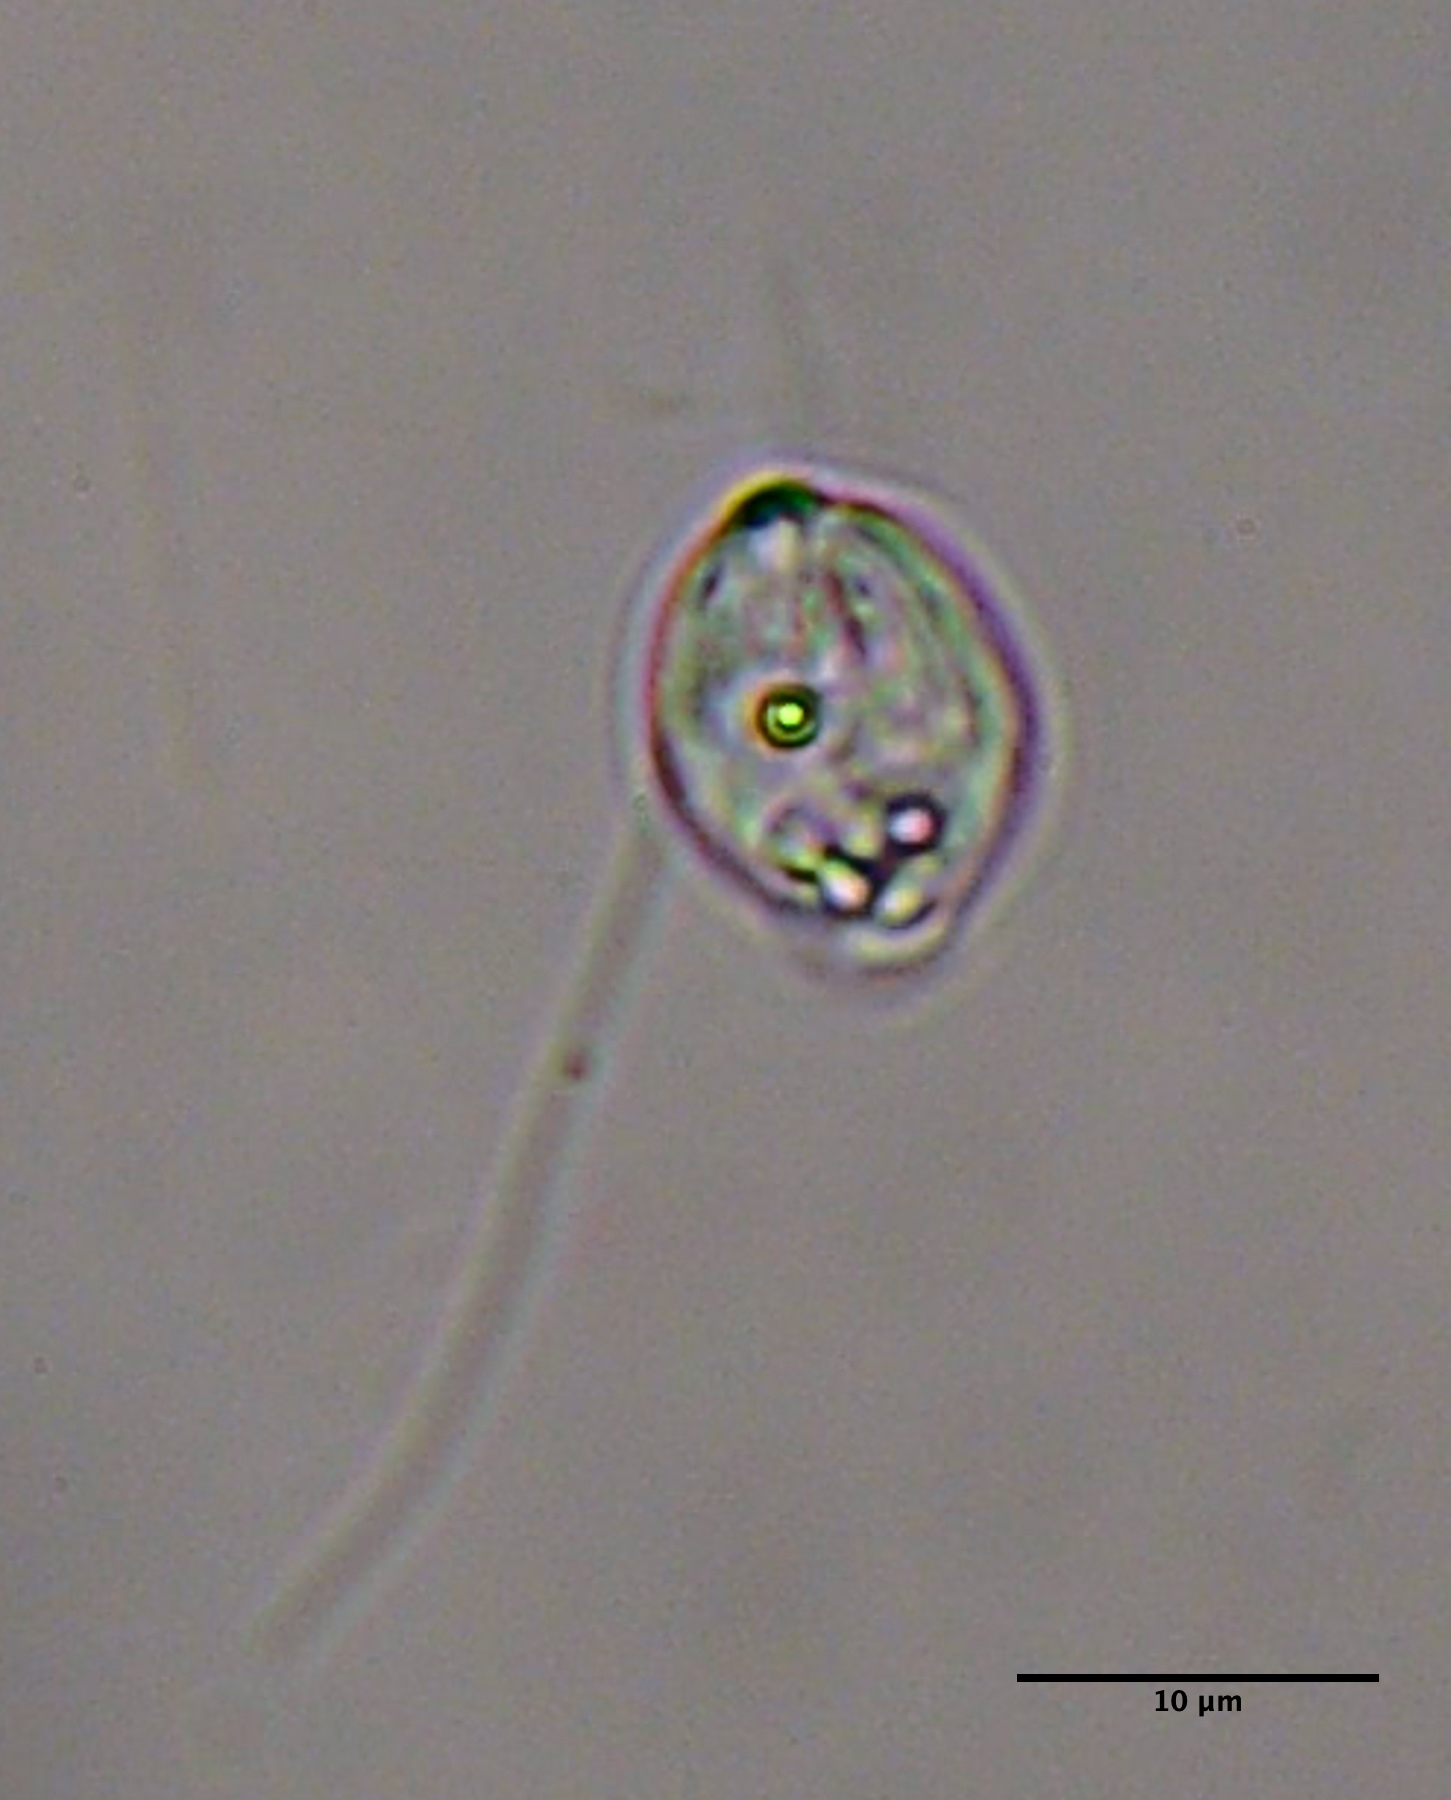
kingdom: Protozoa
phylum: Euglenozoa
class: Euglenoidea
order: Ploeotiida
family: Ploeotiidae
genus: Ploeotia
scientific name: Ploeotia
